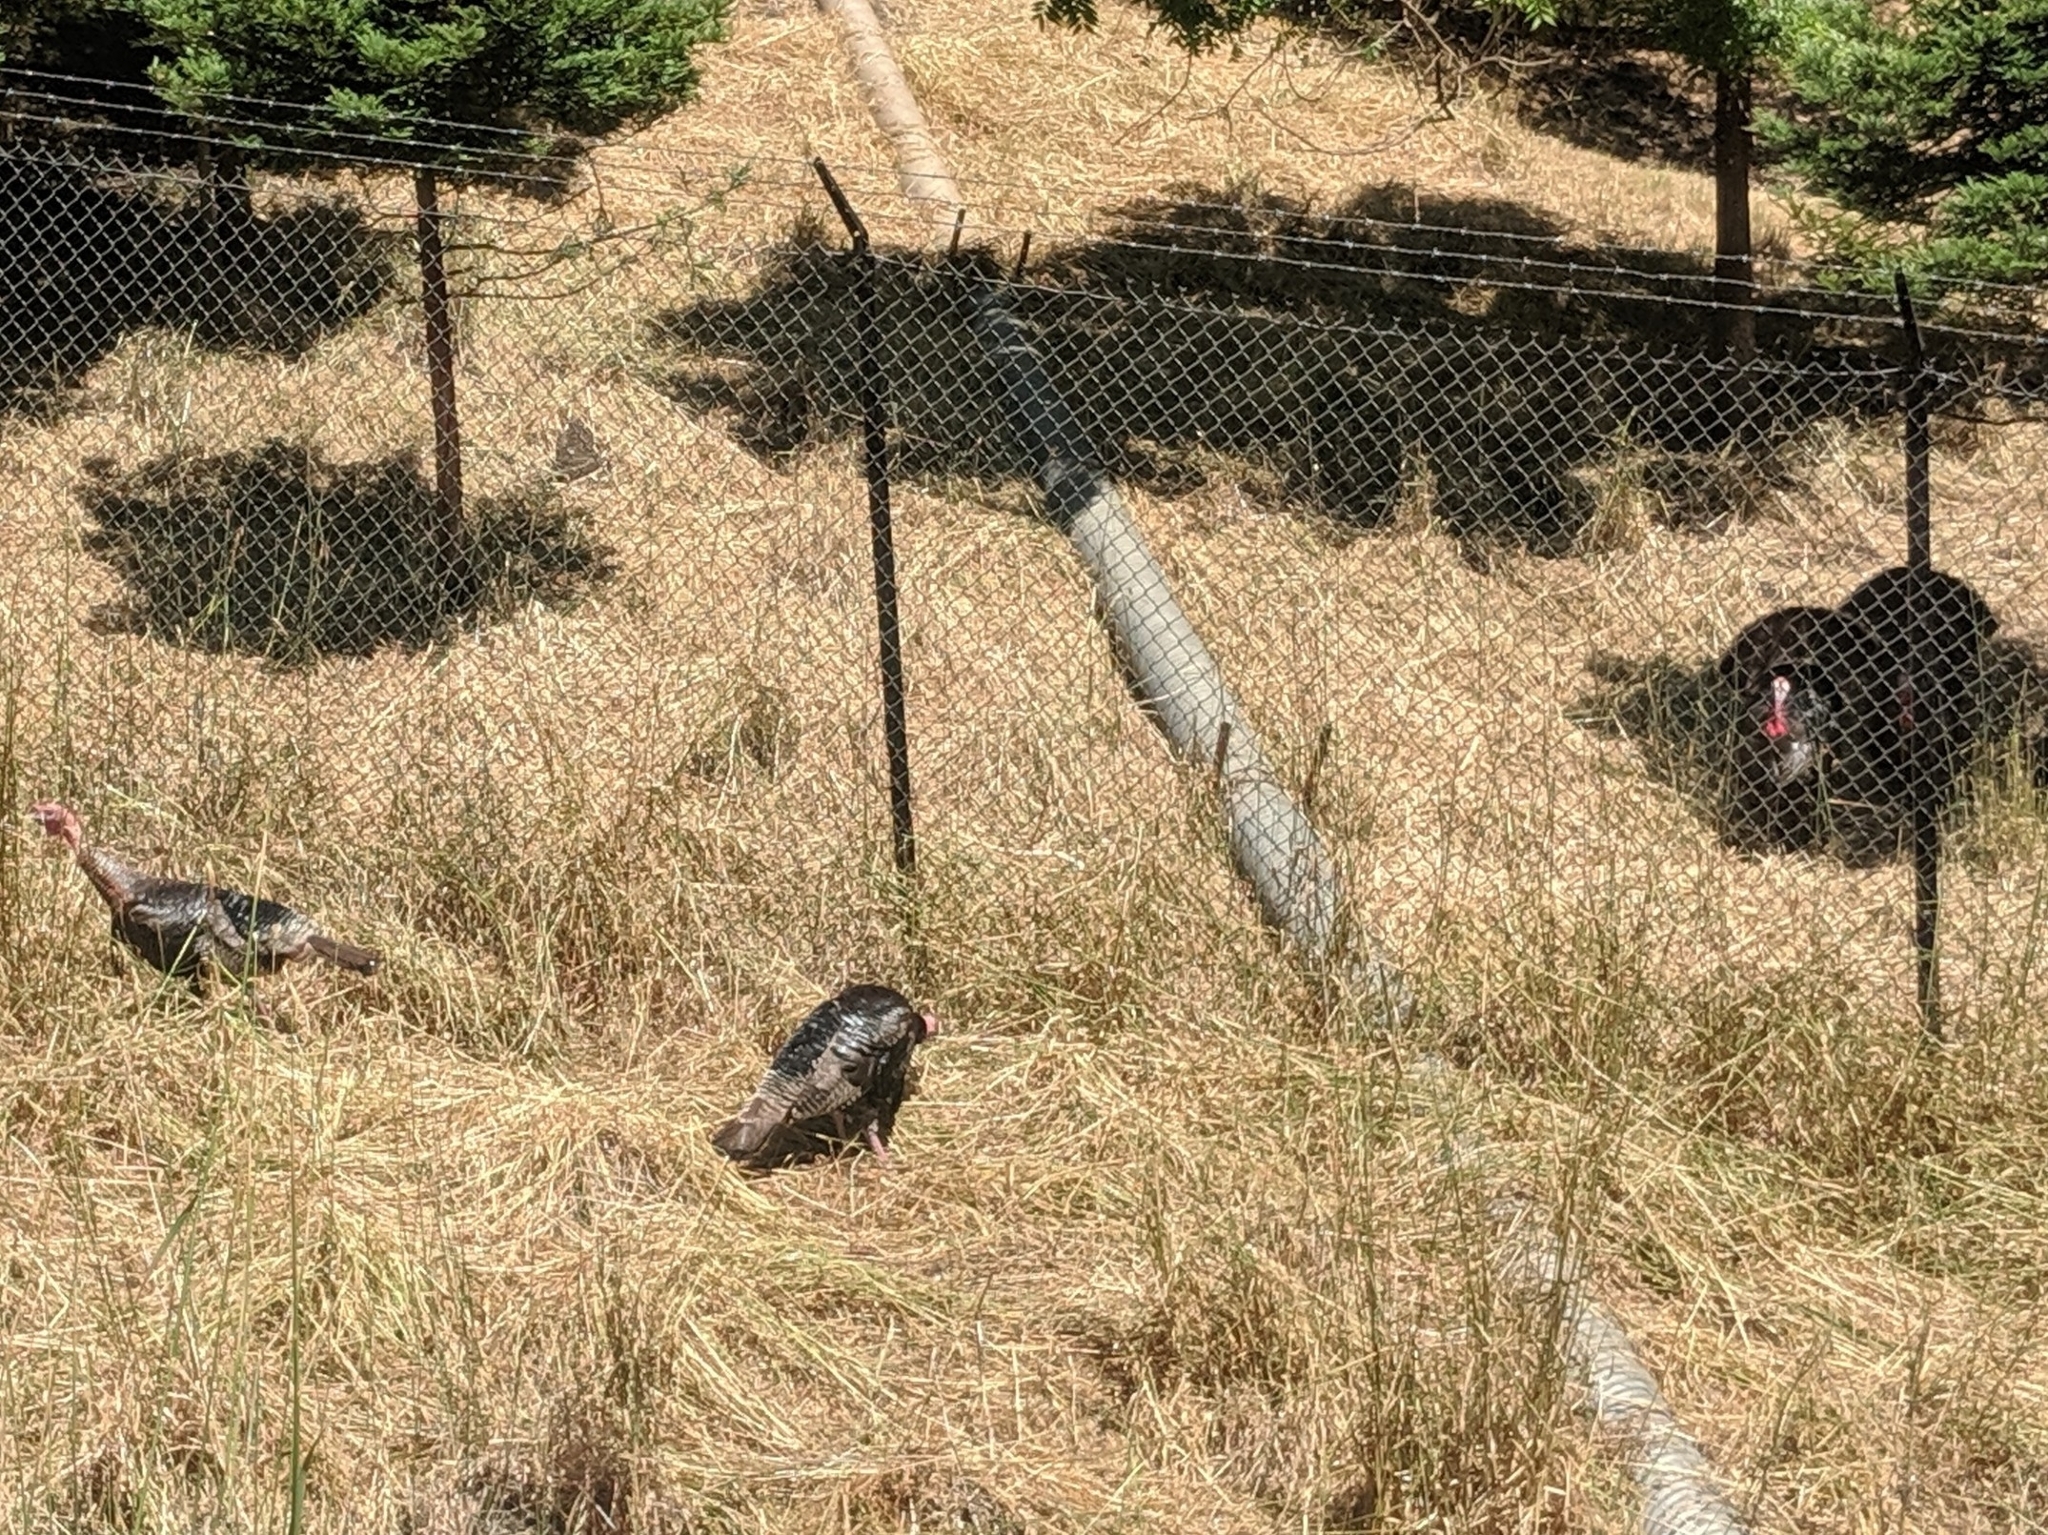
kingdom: Animalia
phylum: Chordata
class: Aves
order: Galliformes
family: Phasianidae
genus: Meleagris
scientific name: Meleagris gallopavo
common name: Wild turkey
